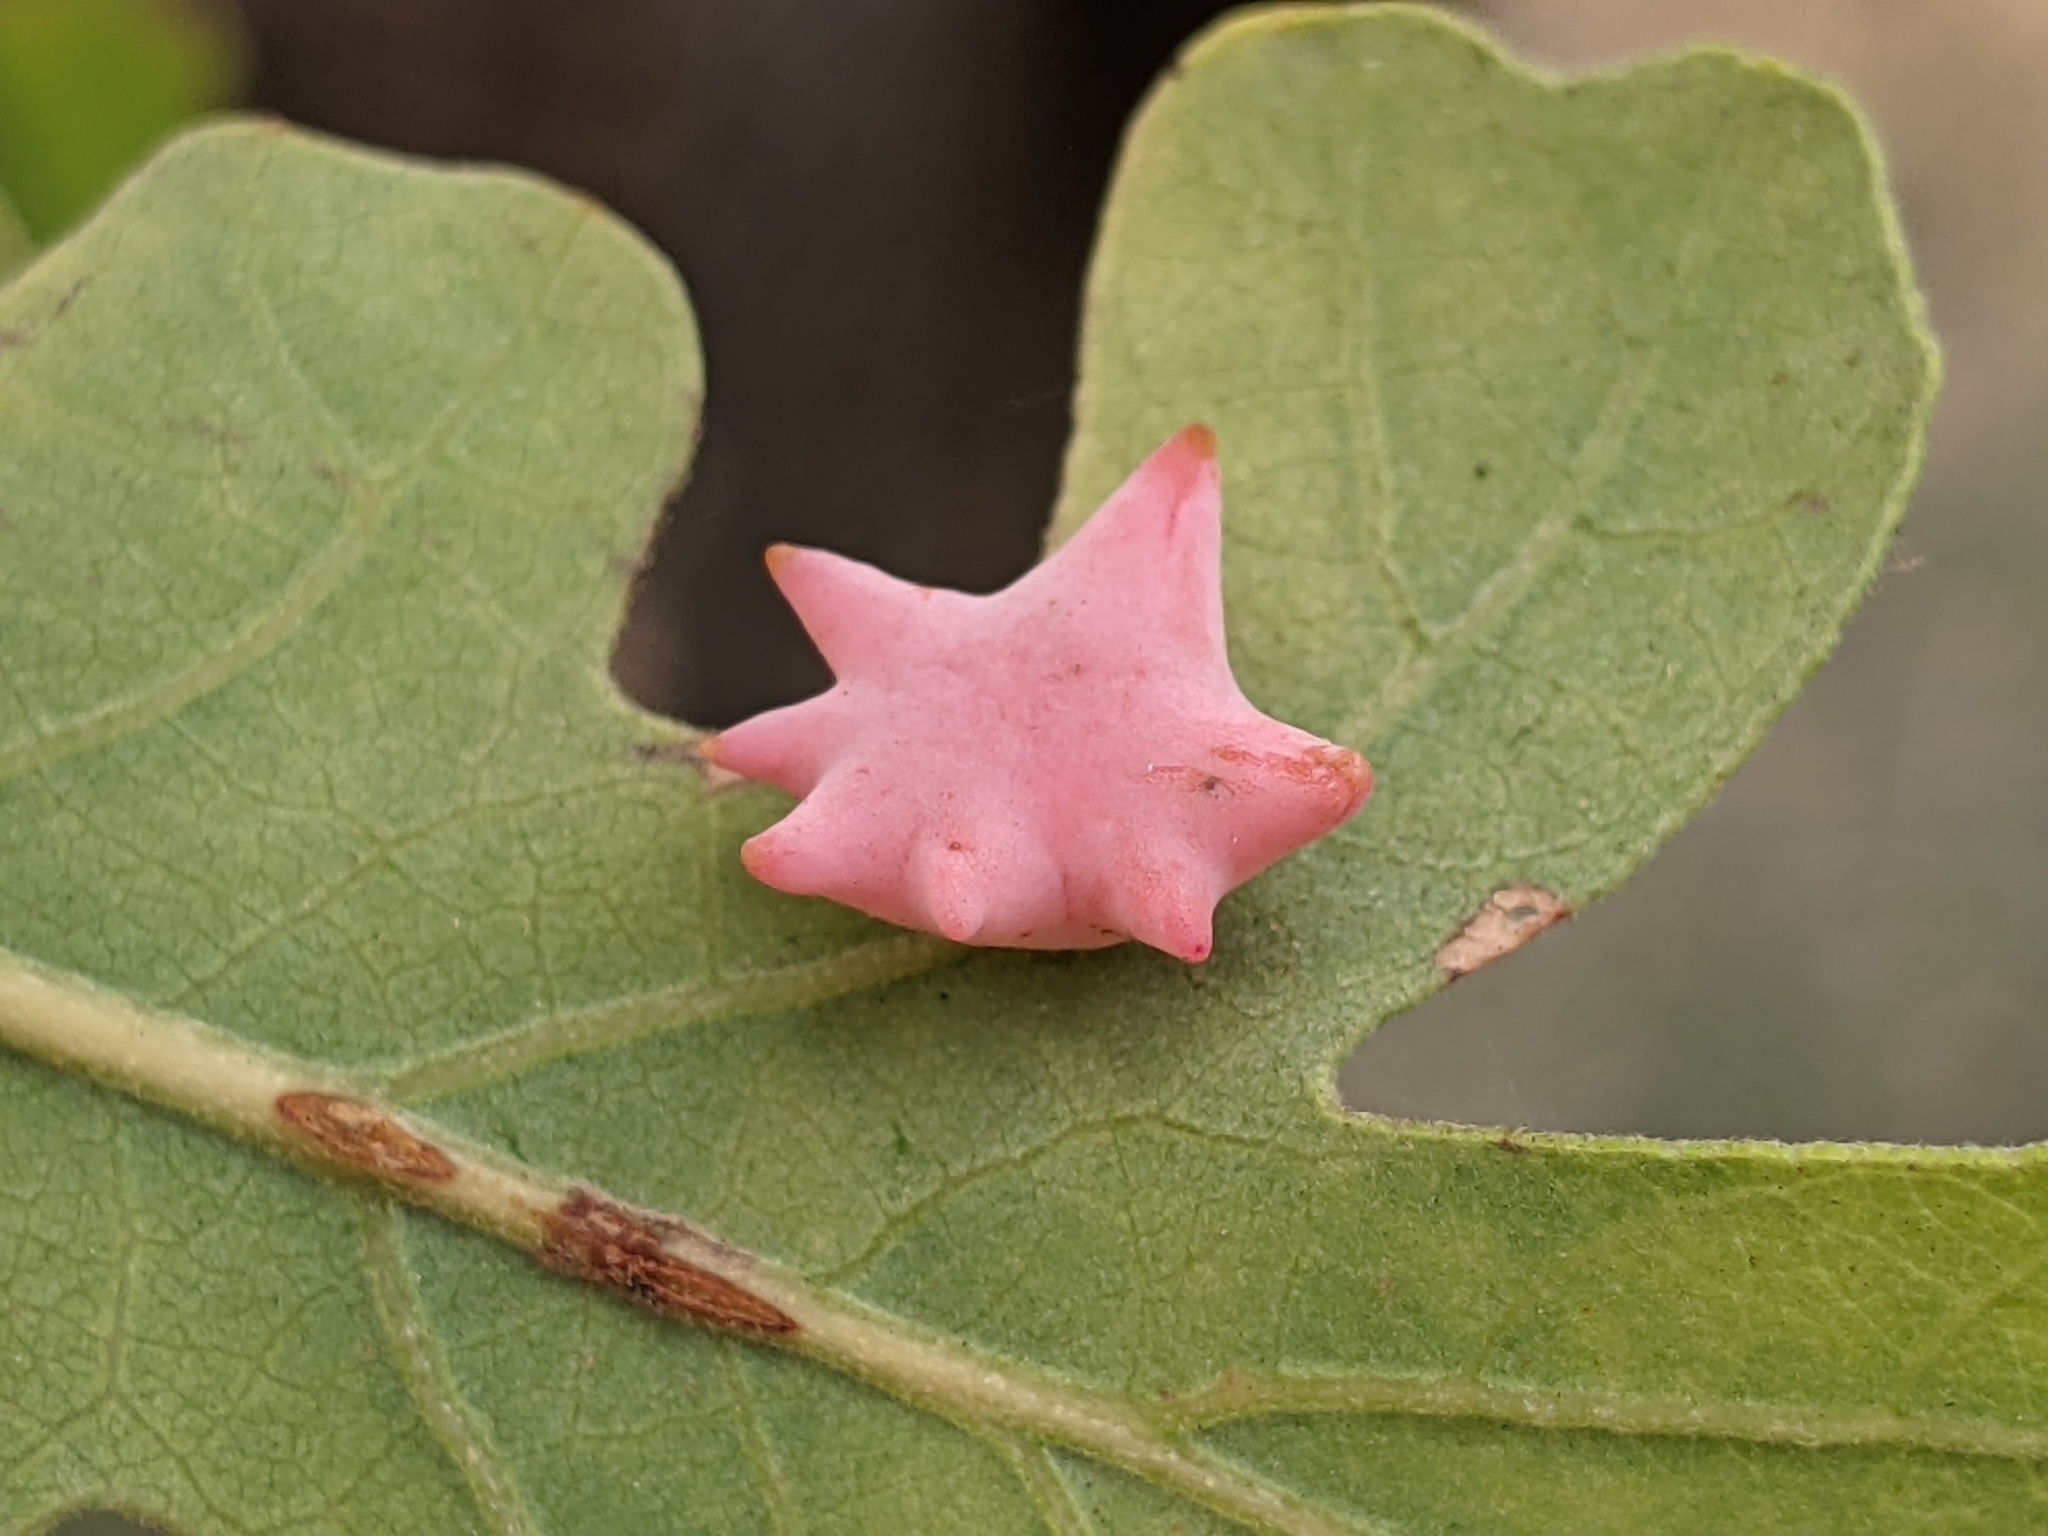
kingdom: Animalia
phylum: Arthropoda
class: Insecta
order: Hymenoptera
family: Cynipidae
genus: Cynips
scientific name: Cynips douglasi
